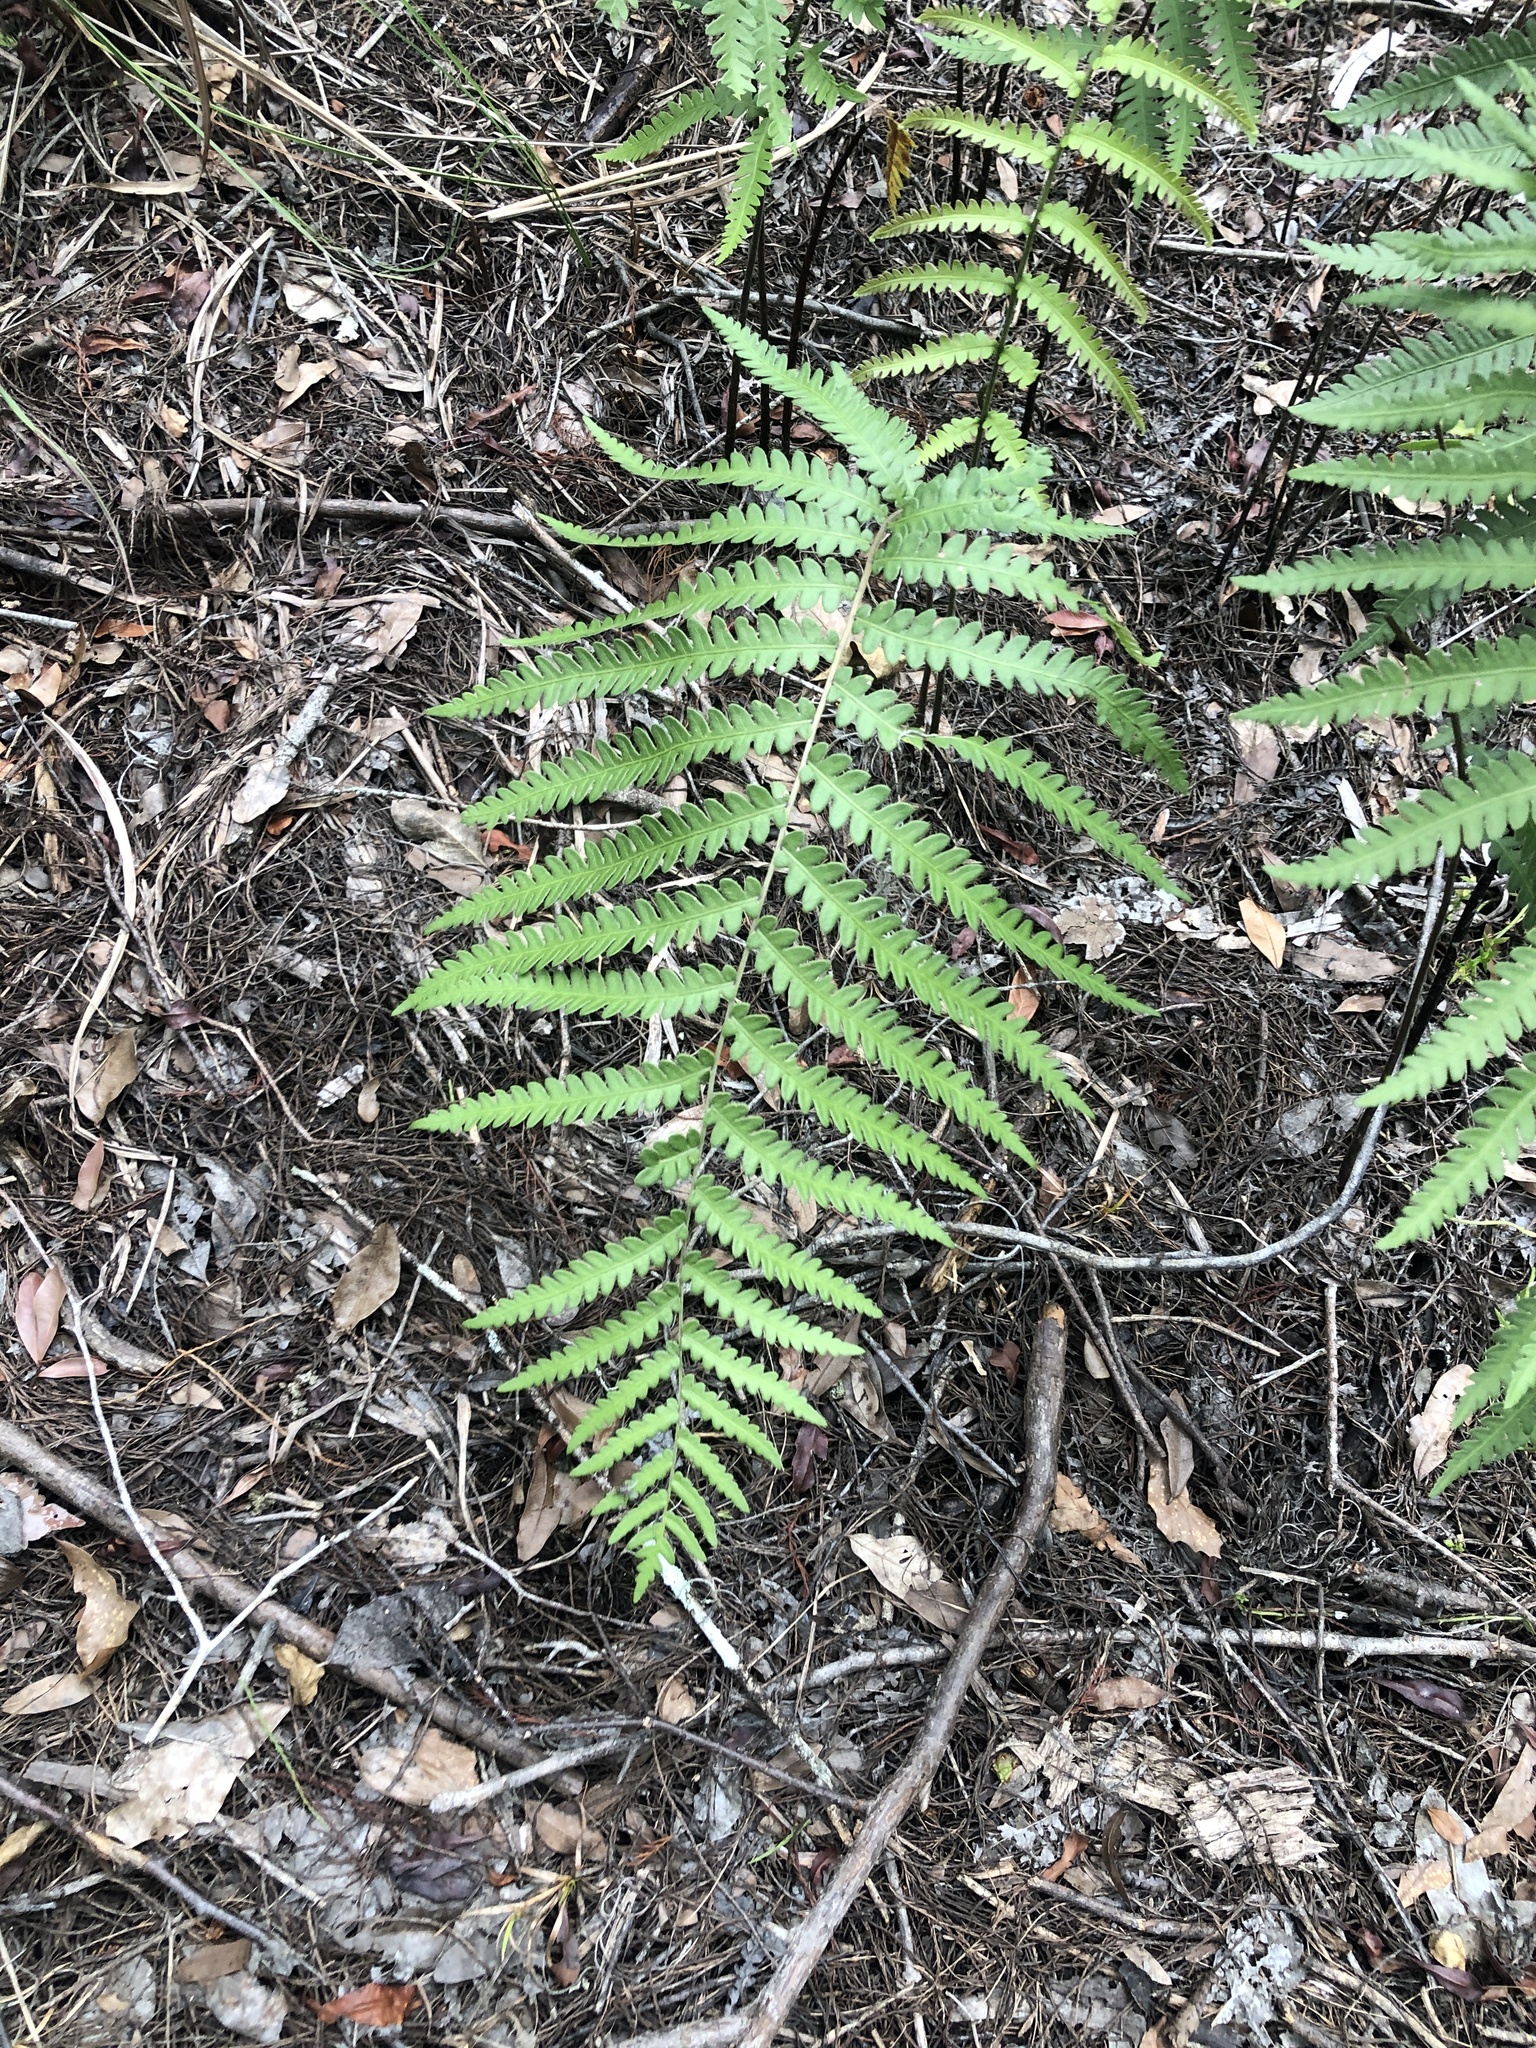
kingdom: Plantae
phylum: Tracheophyta
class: Polypodiopsida
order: Polypodiales
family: Blechnaceae
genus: Anchistea
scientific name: Anchistea virginica
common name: Virginia chain fern
